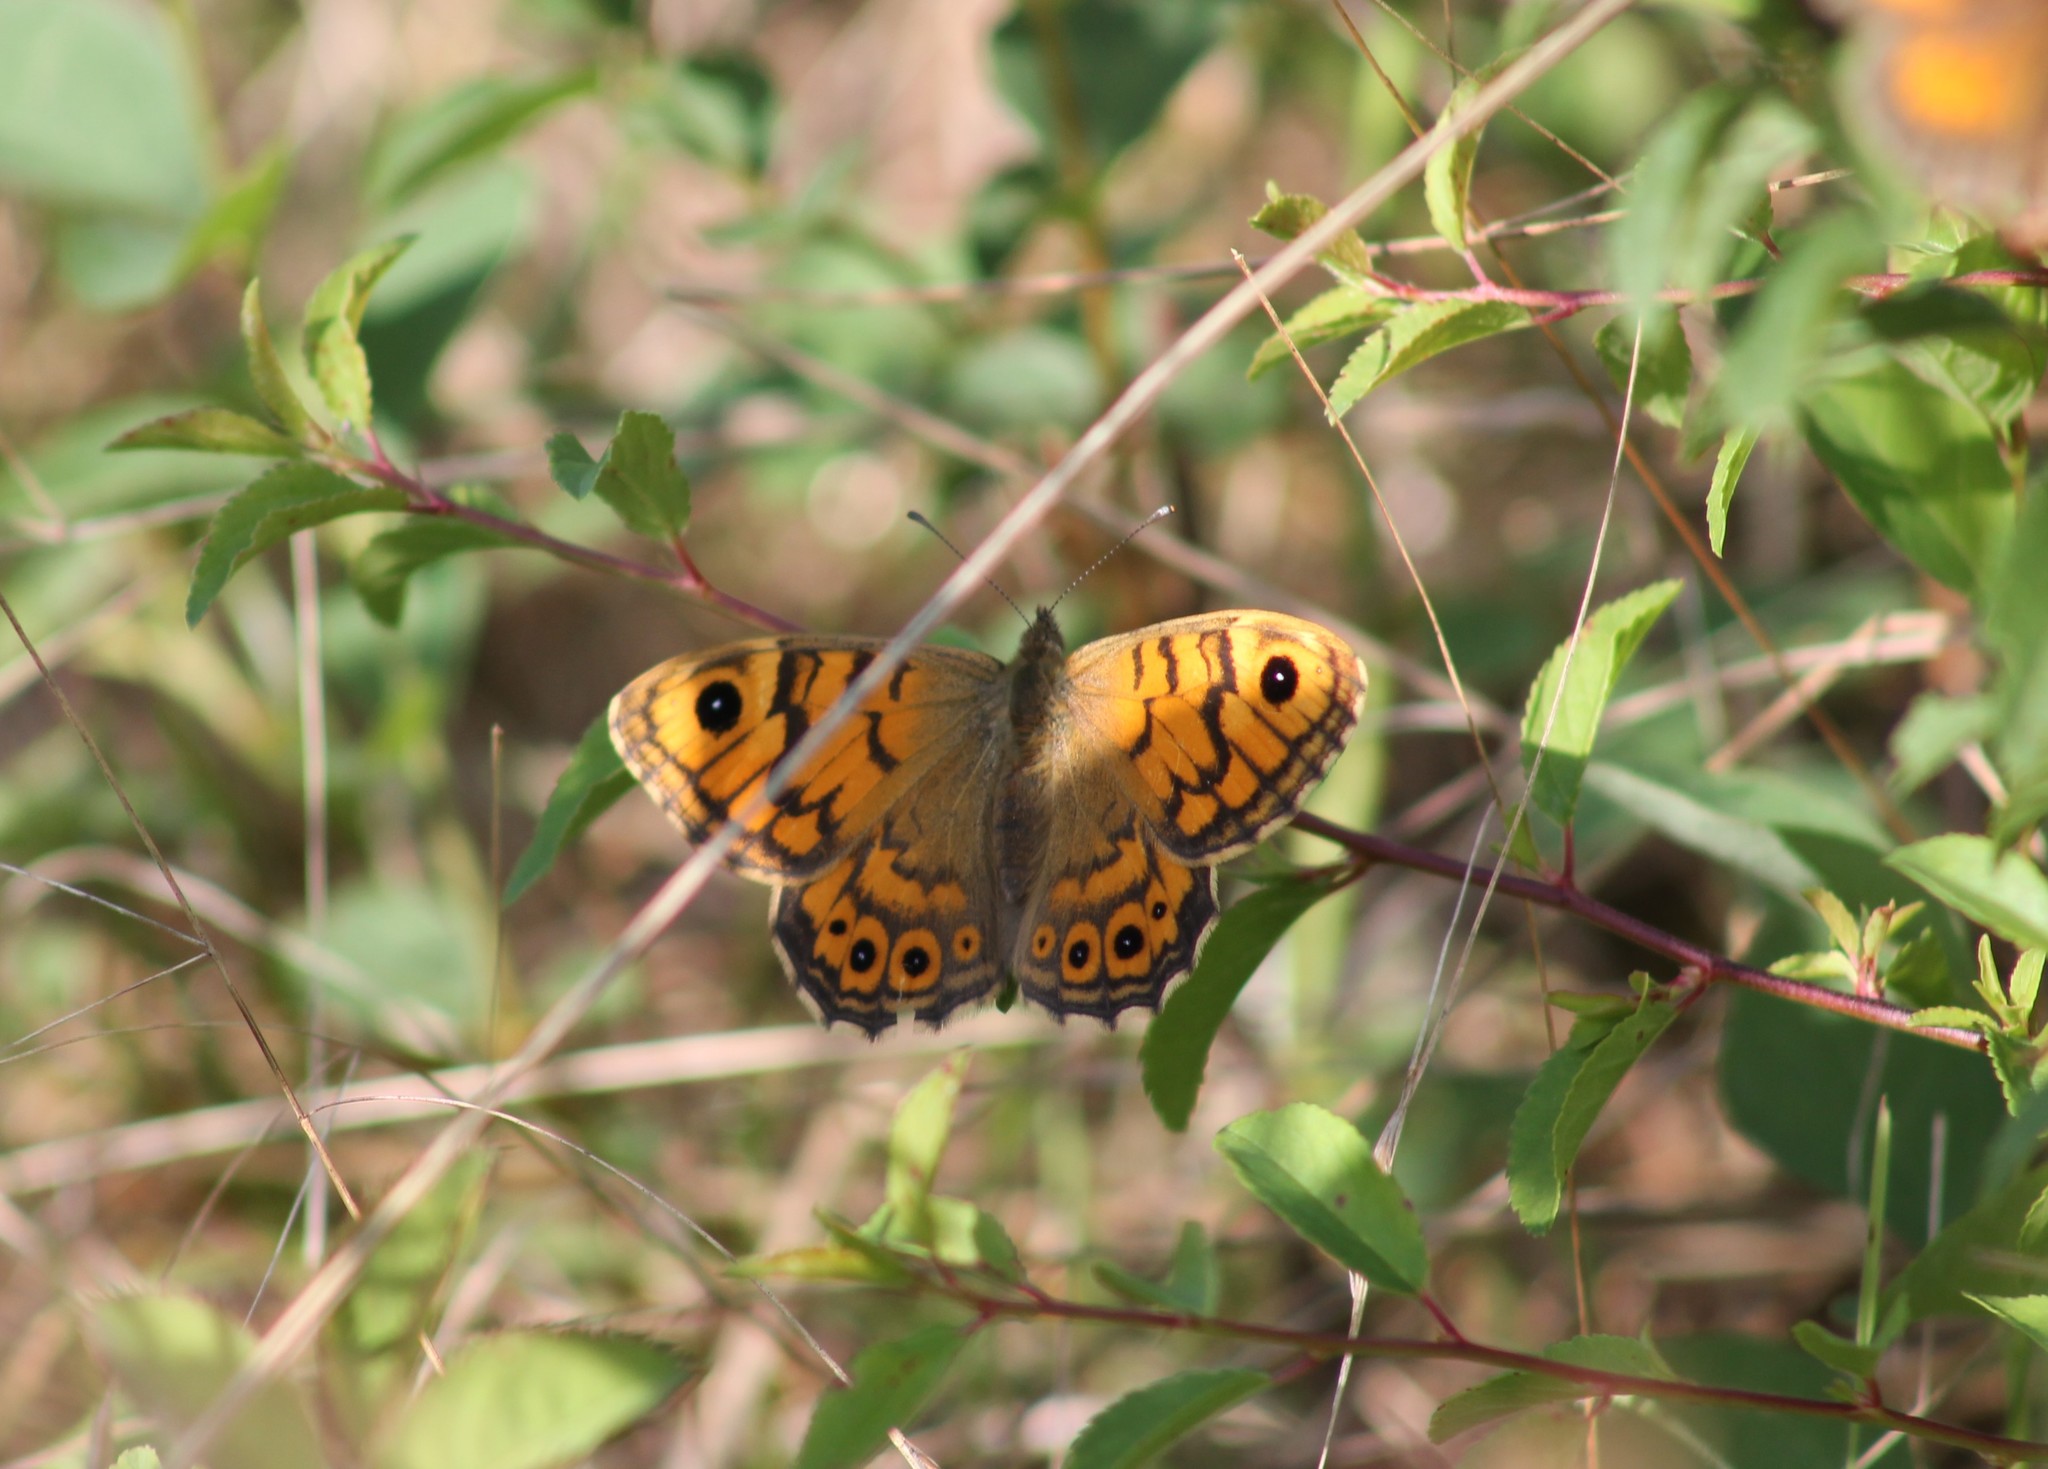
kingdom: Animalia
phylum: Arthropoda
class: Insecta
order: Lepidoptera
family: Nymphalidae
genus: Pararge
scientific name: Pararge Lasiommata megera
